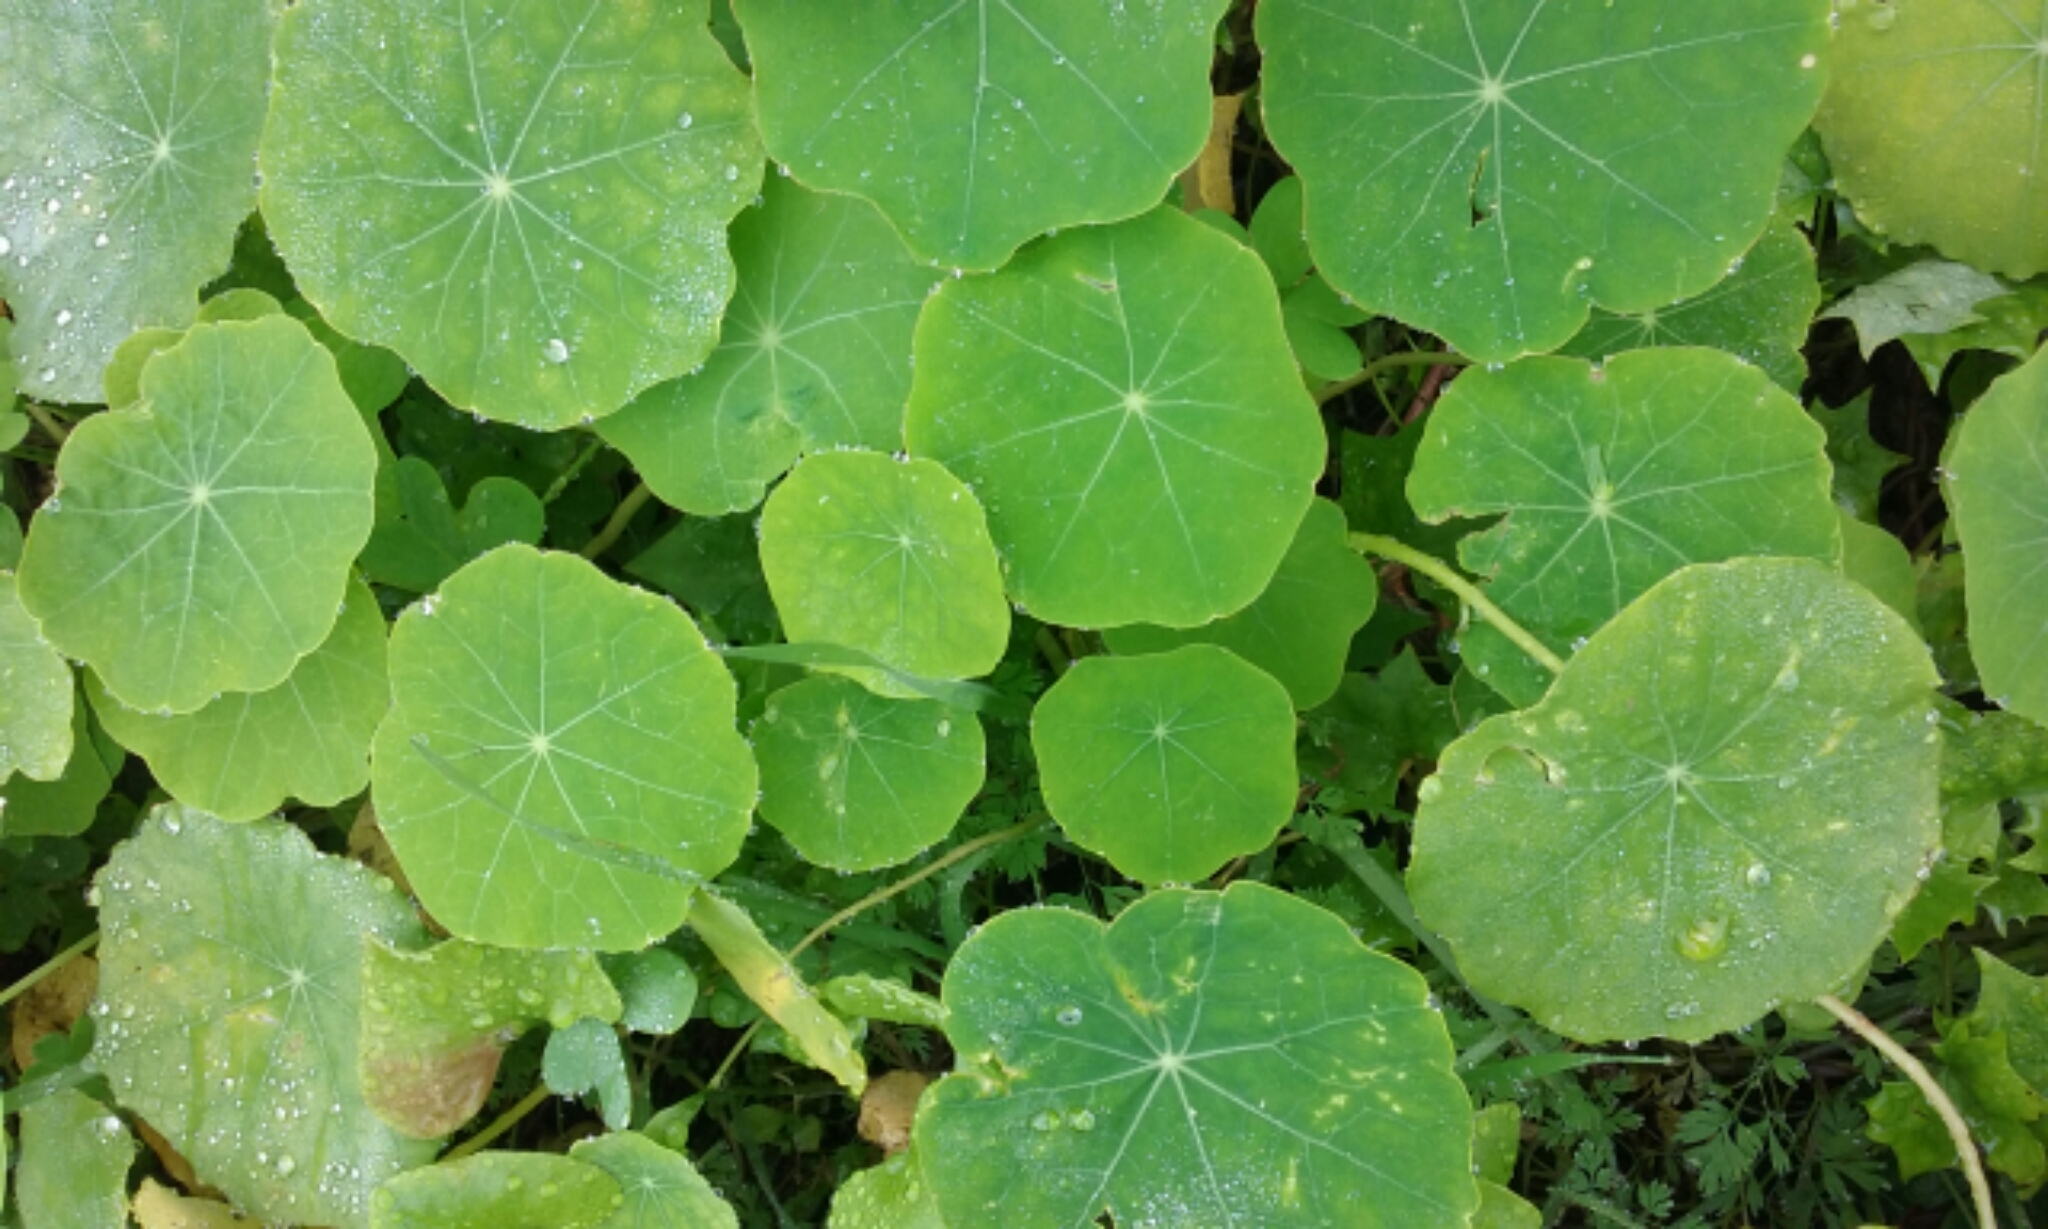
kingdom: Plantae
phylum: Tracheophyta
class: Magnoliopsida
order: Brassicales
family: Tropaeolaceae
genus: Tropaeolum
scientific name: Tropaeolum majus
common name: Nasturtium
